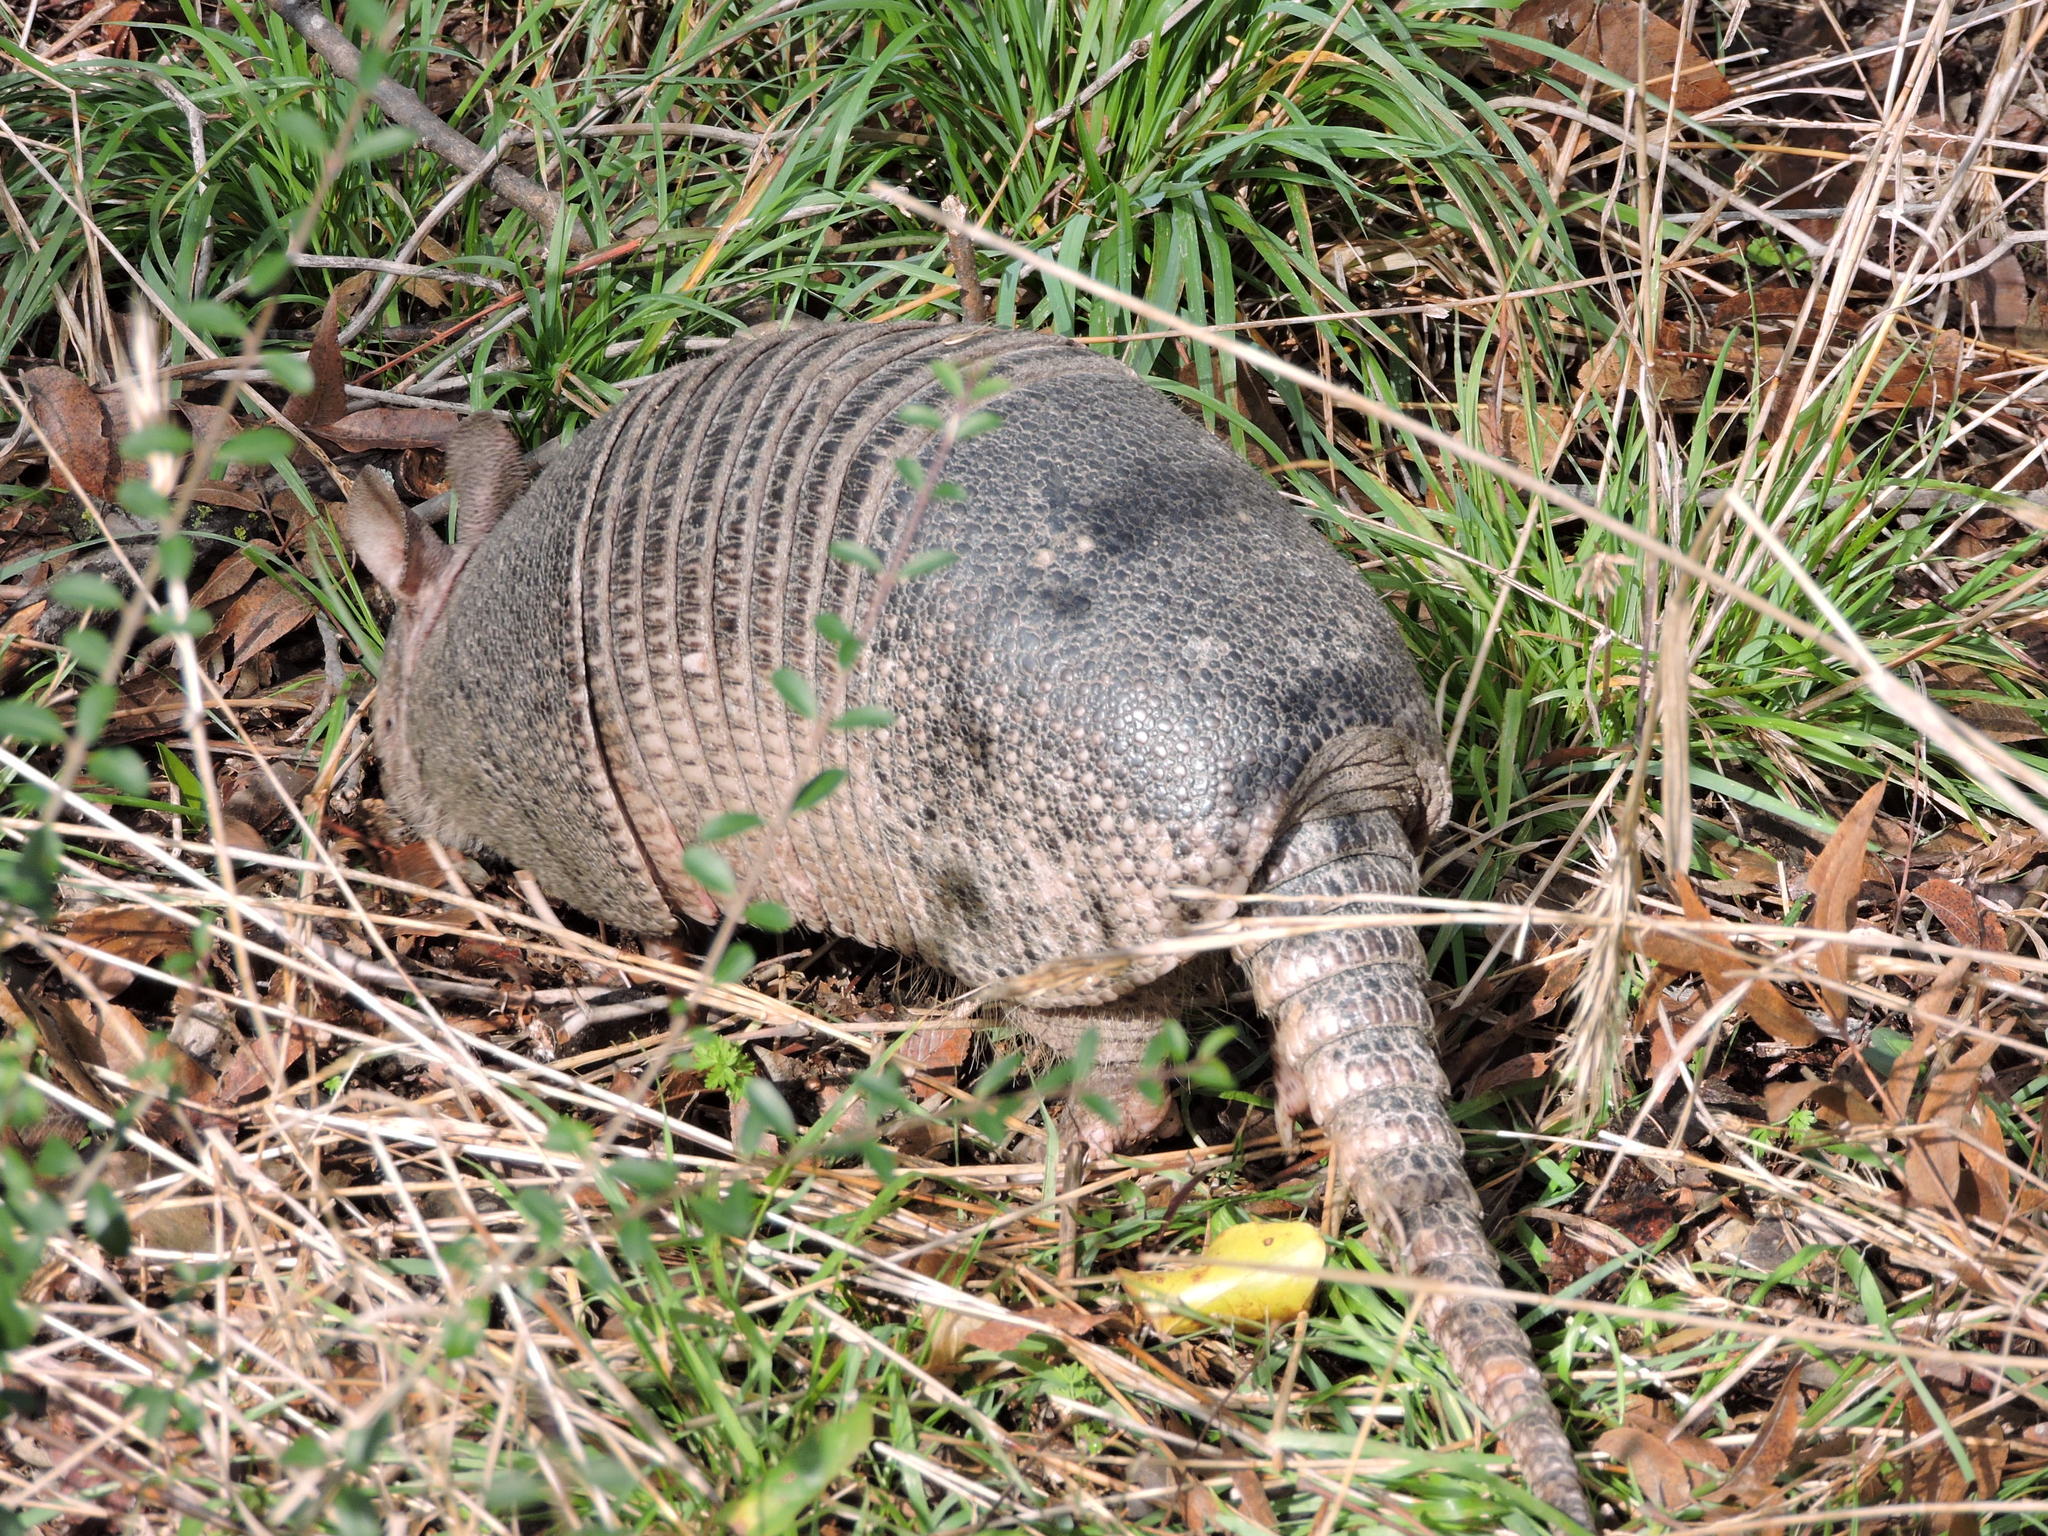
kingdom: Animalia
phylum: Chordata
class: Mammalia
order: Cingulata
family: Dasypodidae
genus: Dasypus
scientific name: Dasypus novemcinctus
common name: Nine-banded armadillo
